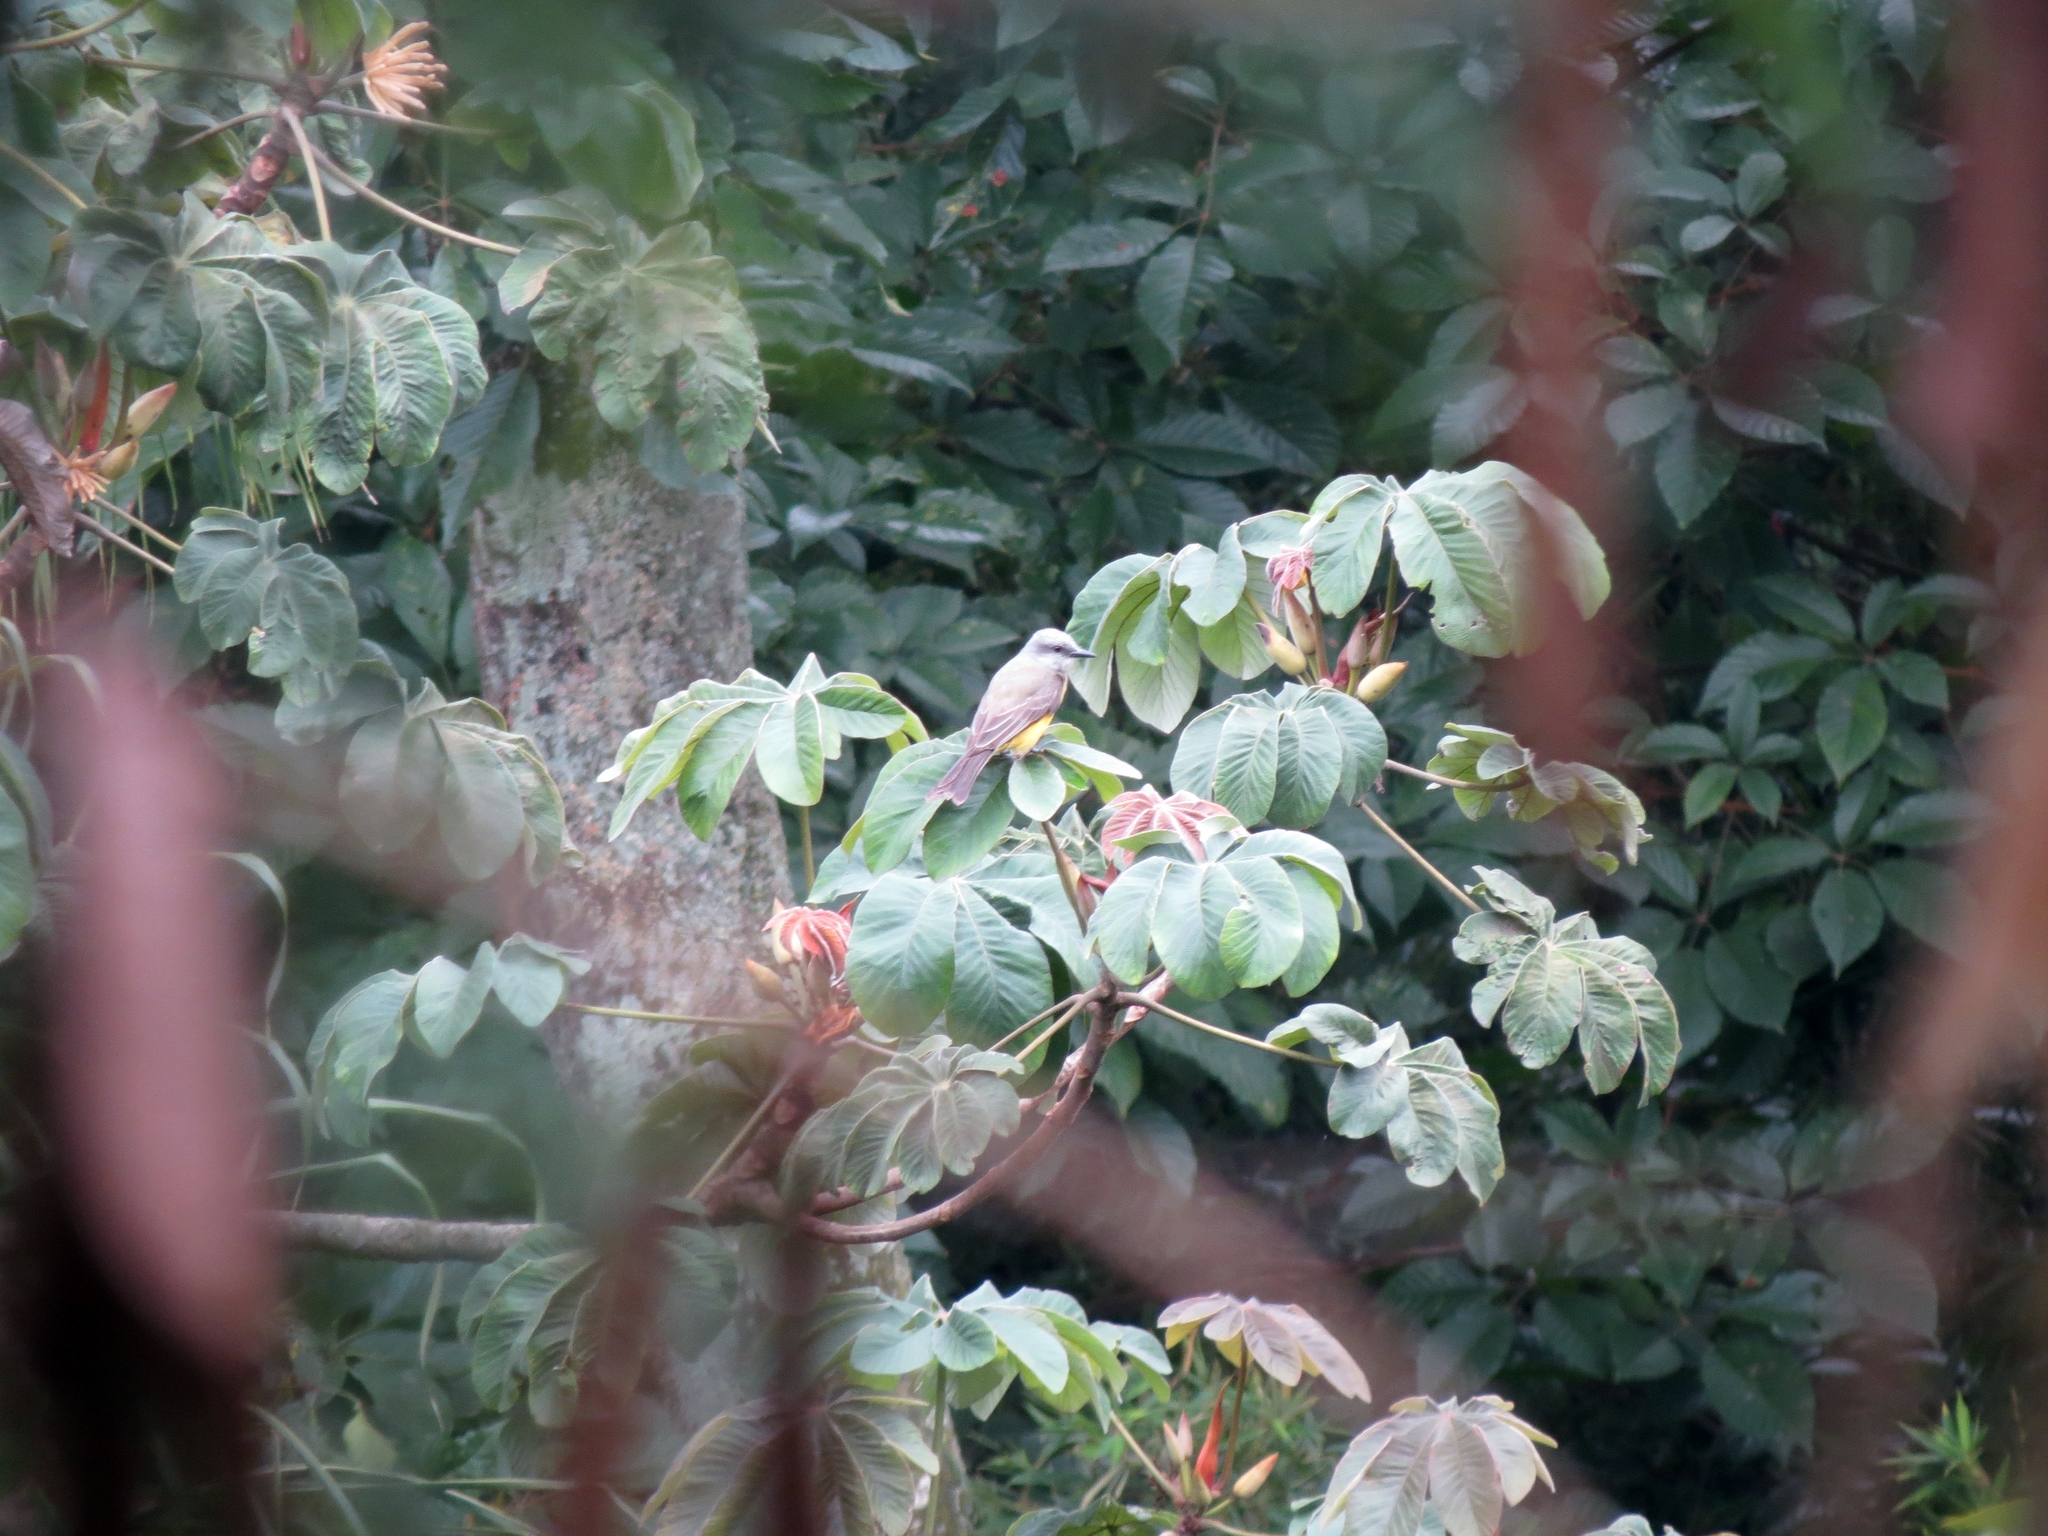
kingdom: Animalia
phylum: Chordata
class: Aves
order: Passeriformes
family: Tyrannidae
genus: Tyrannus
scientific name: Tyrannus melancholicus
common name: Tropical kingbird
